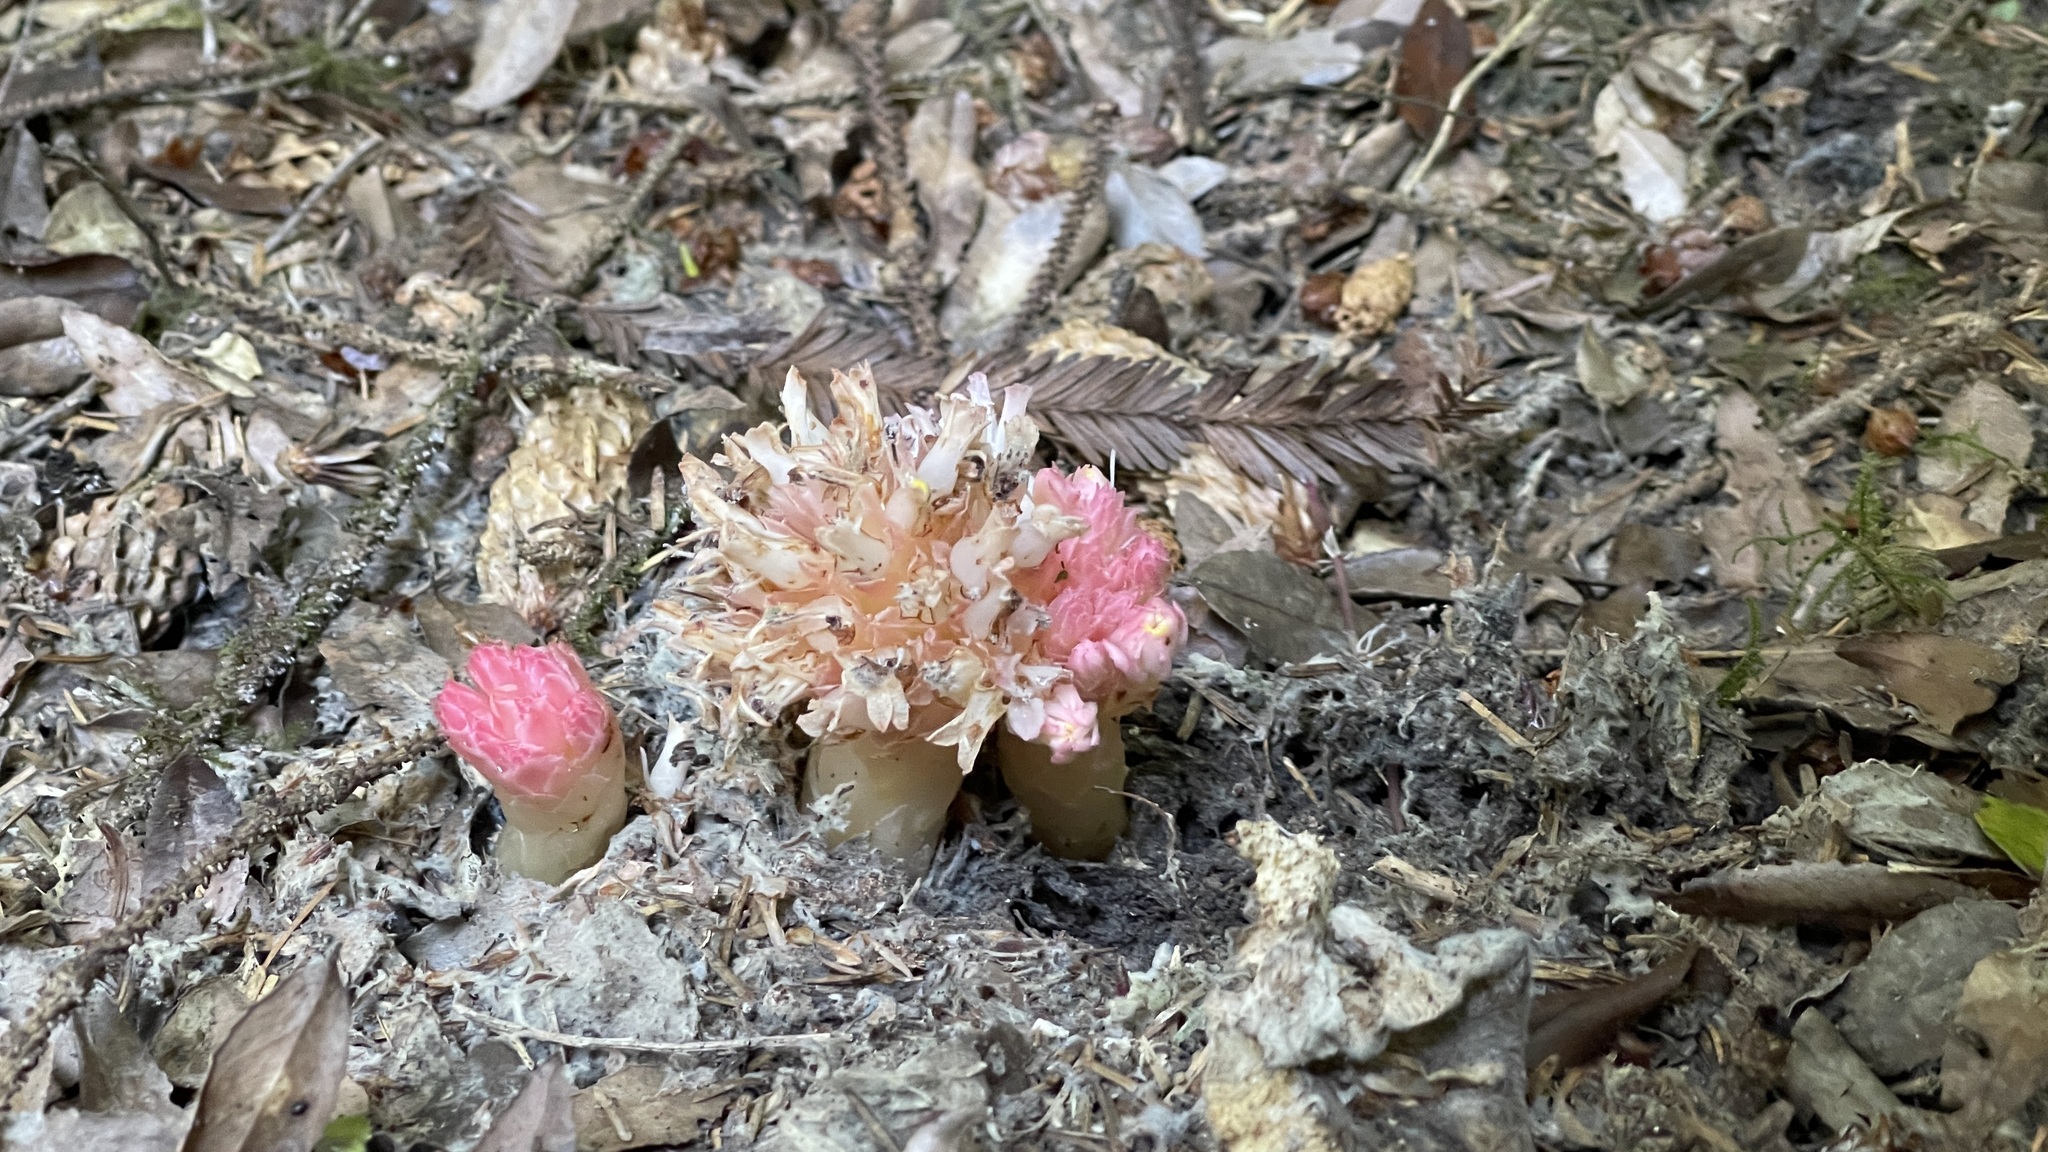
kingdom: Plantae
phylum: Tracheophyta
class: Magnoliopsida
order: Ericales
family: Ericaceae
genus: Hemitomes
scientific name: Hemitomes congestum
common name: Cone plant
